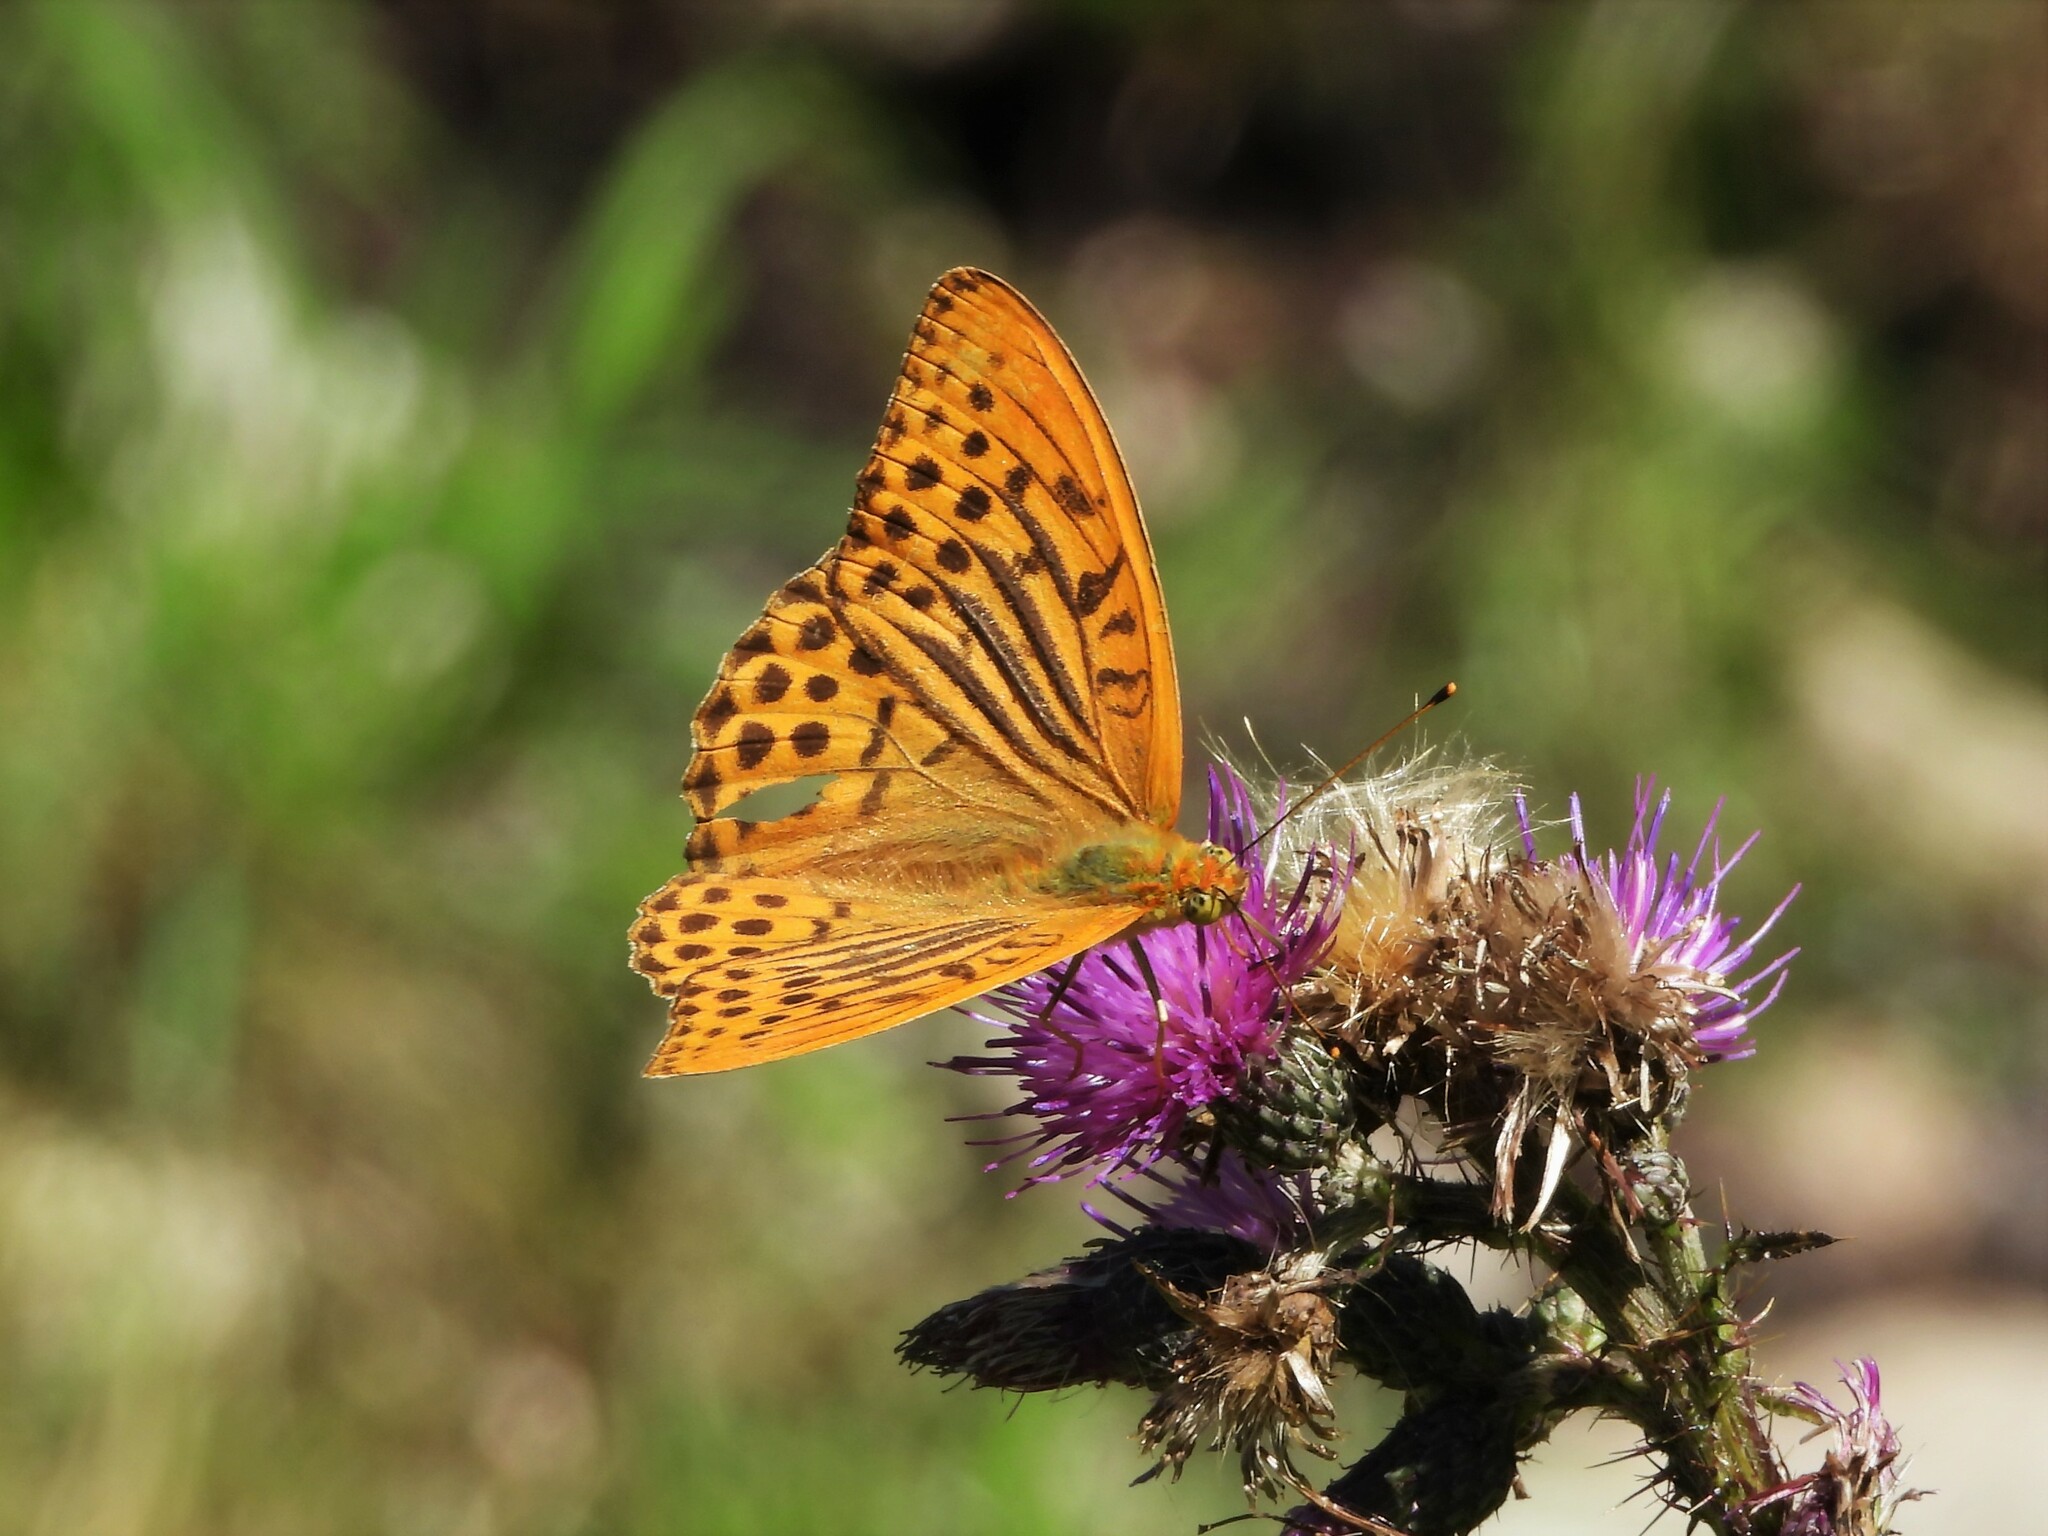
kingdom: Animalia
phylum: Arthropoda
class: Insecta
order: Lepidoptera
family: Nymphalidae
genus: Argynnis
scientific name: Argynnis paphia
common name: Silver-washed fritillary
